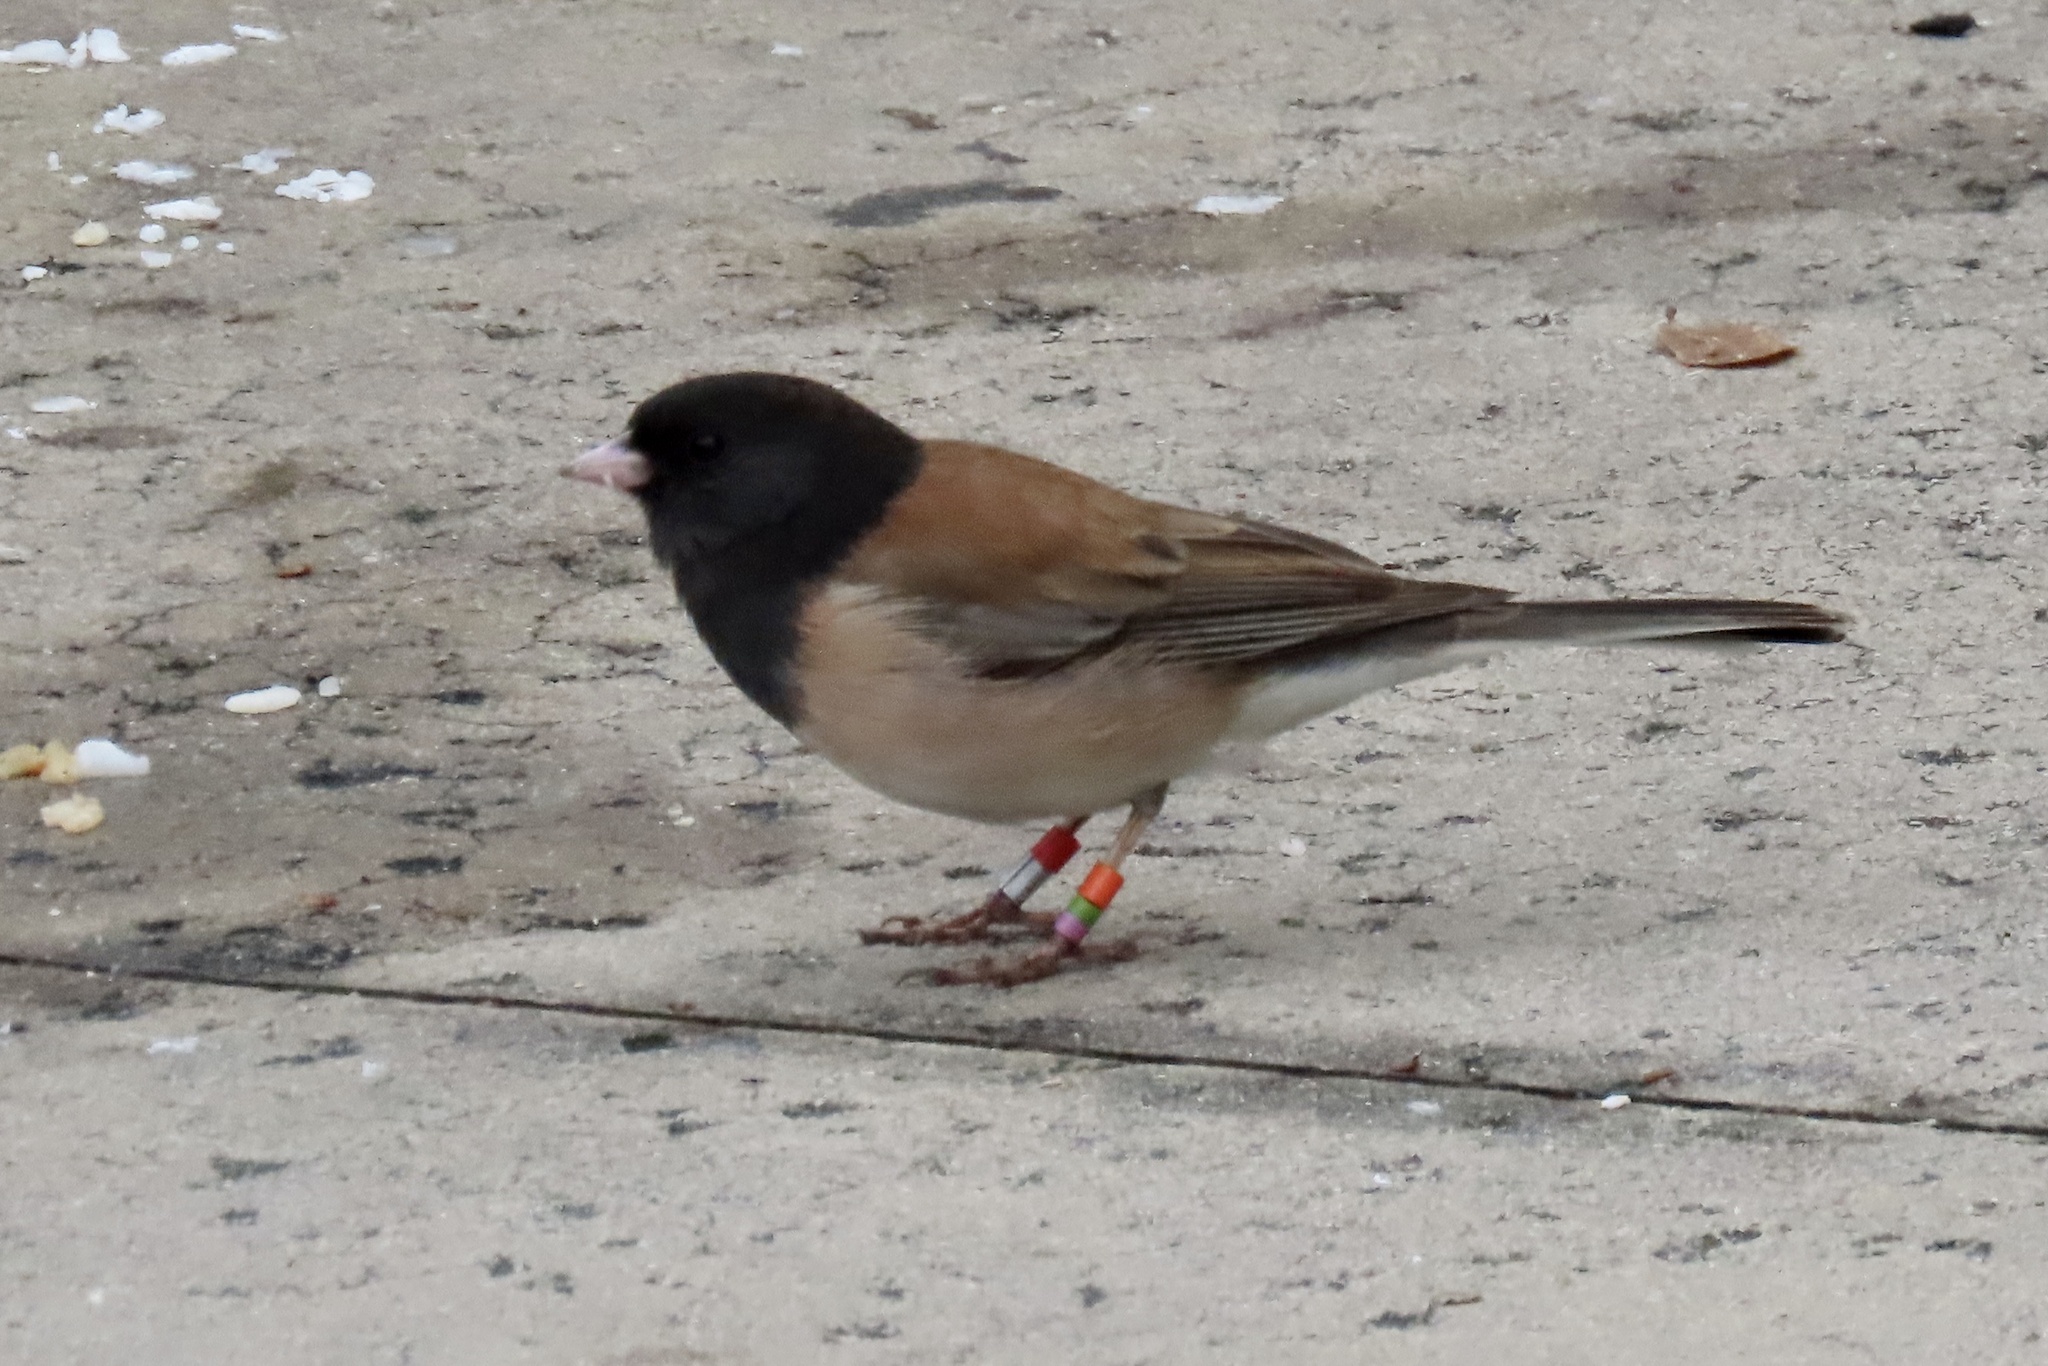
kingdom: Animalia
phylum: Chordata
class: Aves
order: Passeriformes
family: Passerellidae
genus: Junco
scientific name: Junco hyemalis
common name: Dark-eyed junco
